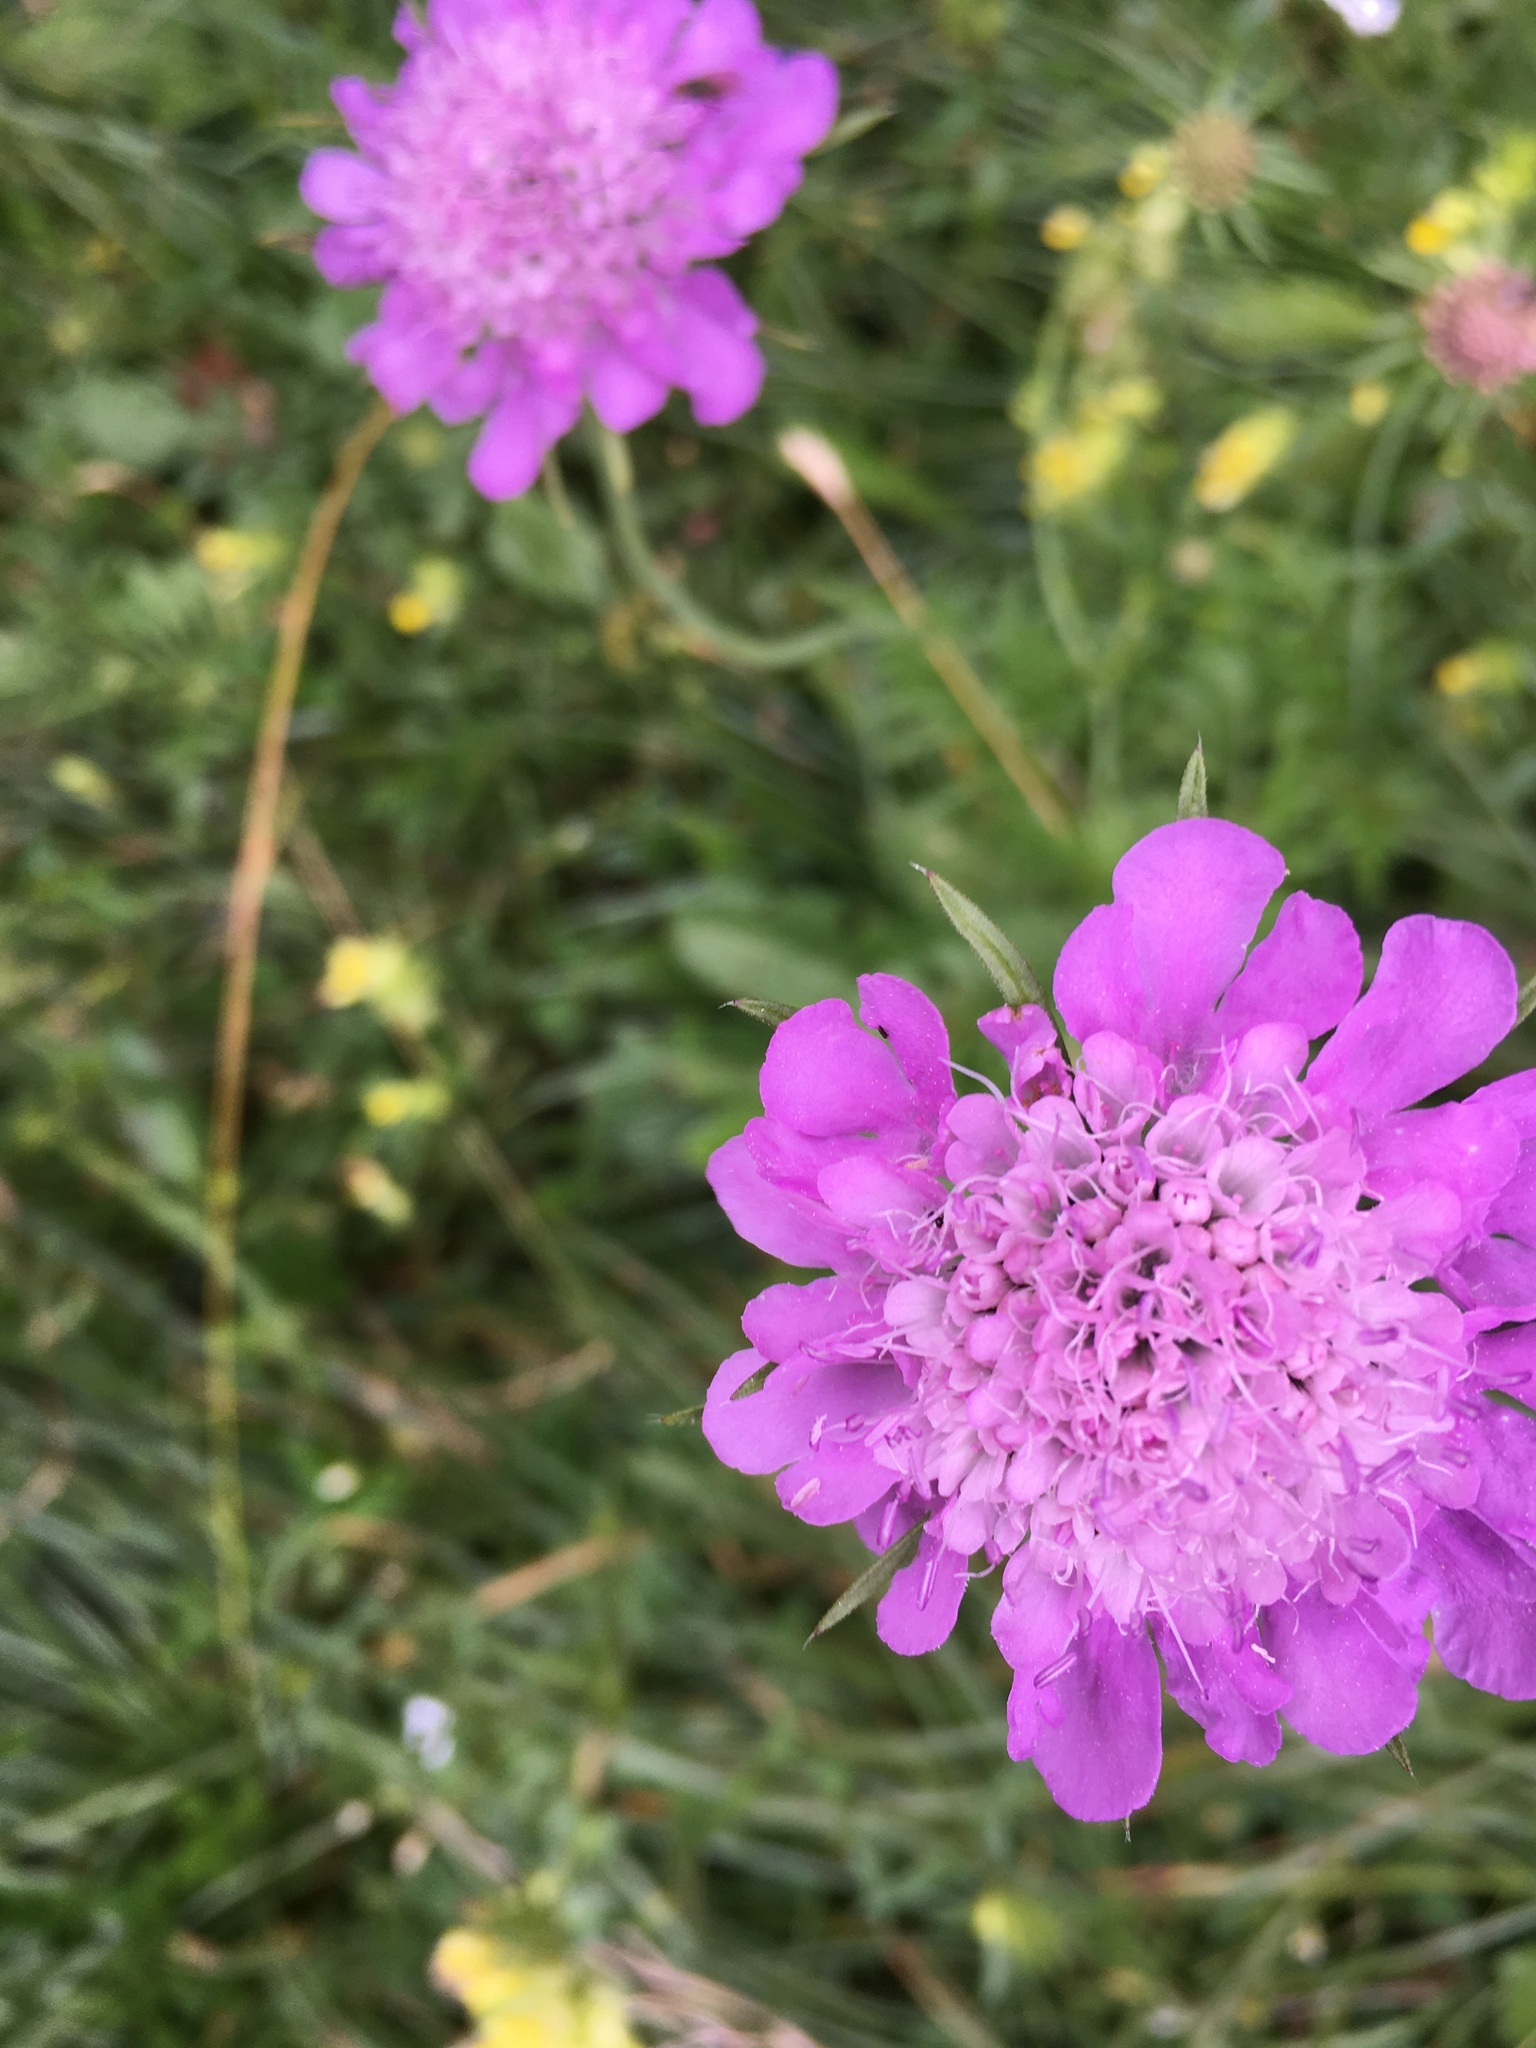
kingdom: Plantae
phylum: Tracheophyta
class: Magnoliopsida
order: Dipsacales
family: Caprifoliaceae
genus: Scabiosa
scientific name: Scabiosa lucida
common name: Shining scabious
